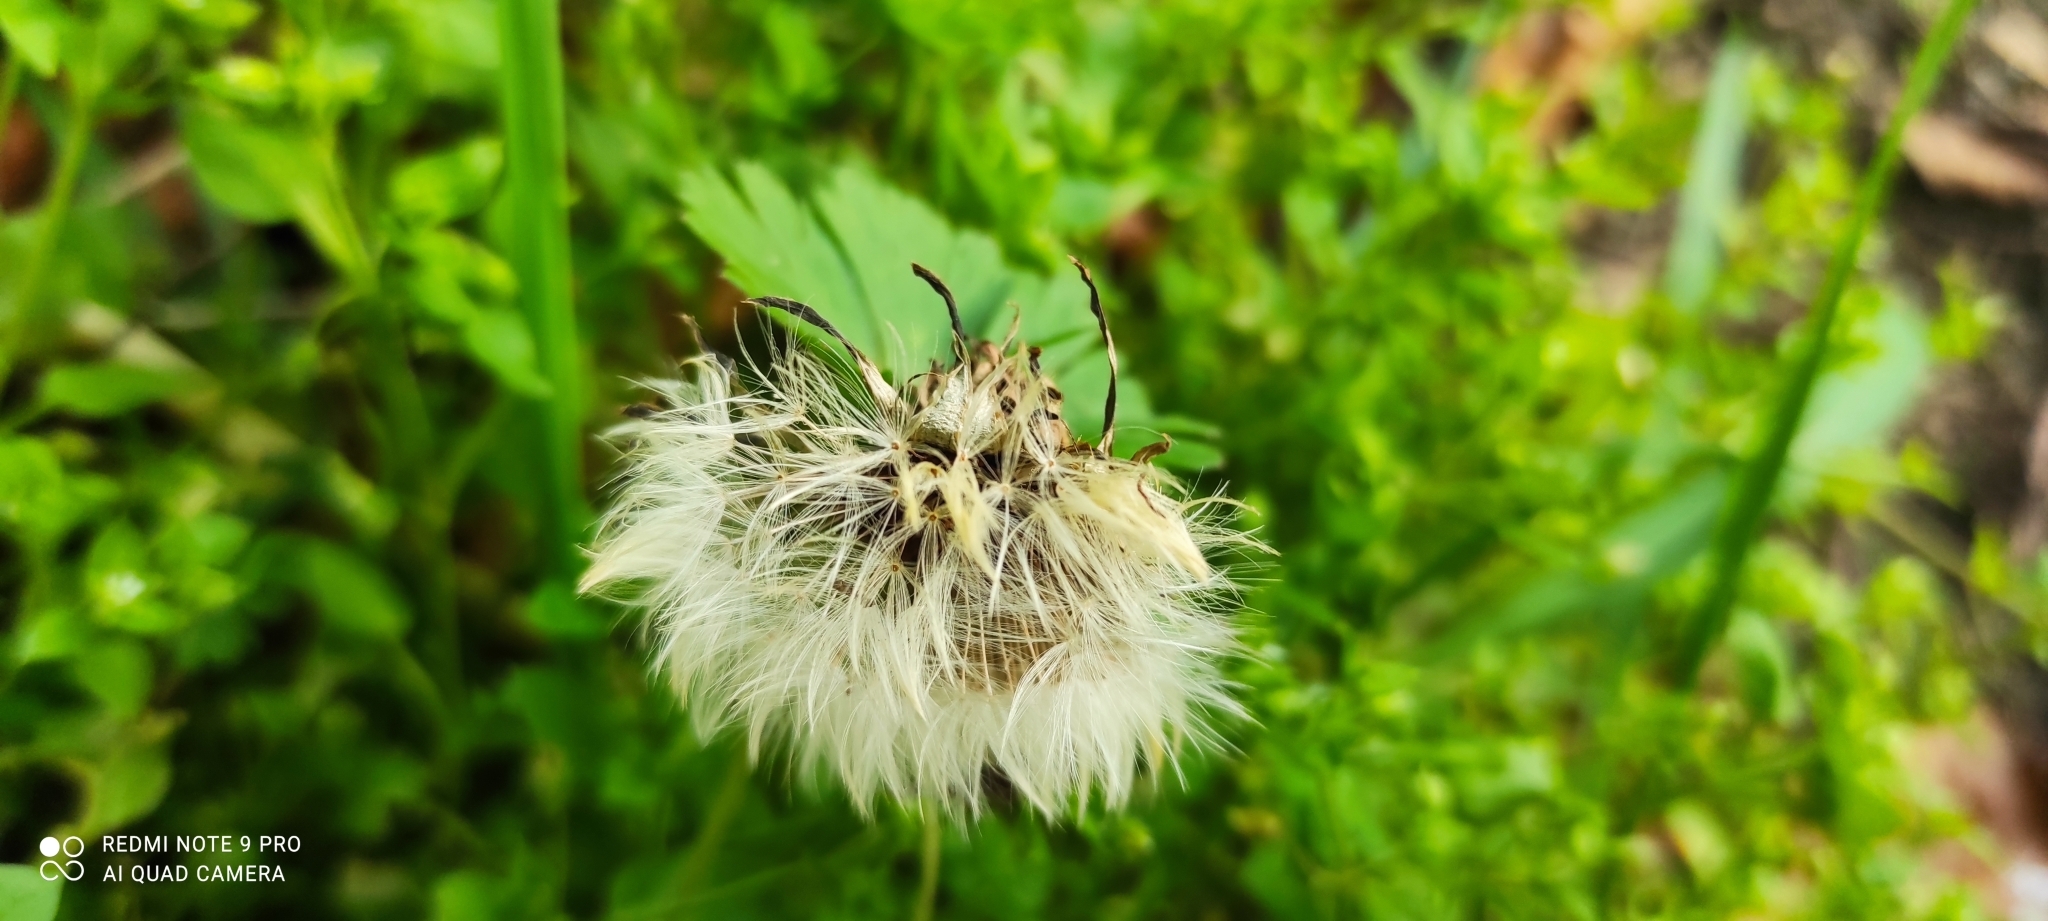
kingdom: Plantae
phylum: Tracheophyta
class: Magnoliopsida
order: Asterales
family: Asteraceae
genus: Taraxacum
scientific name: Taraxacum officinale
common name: Common dandelion
